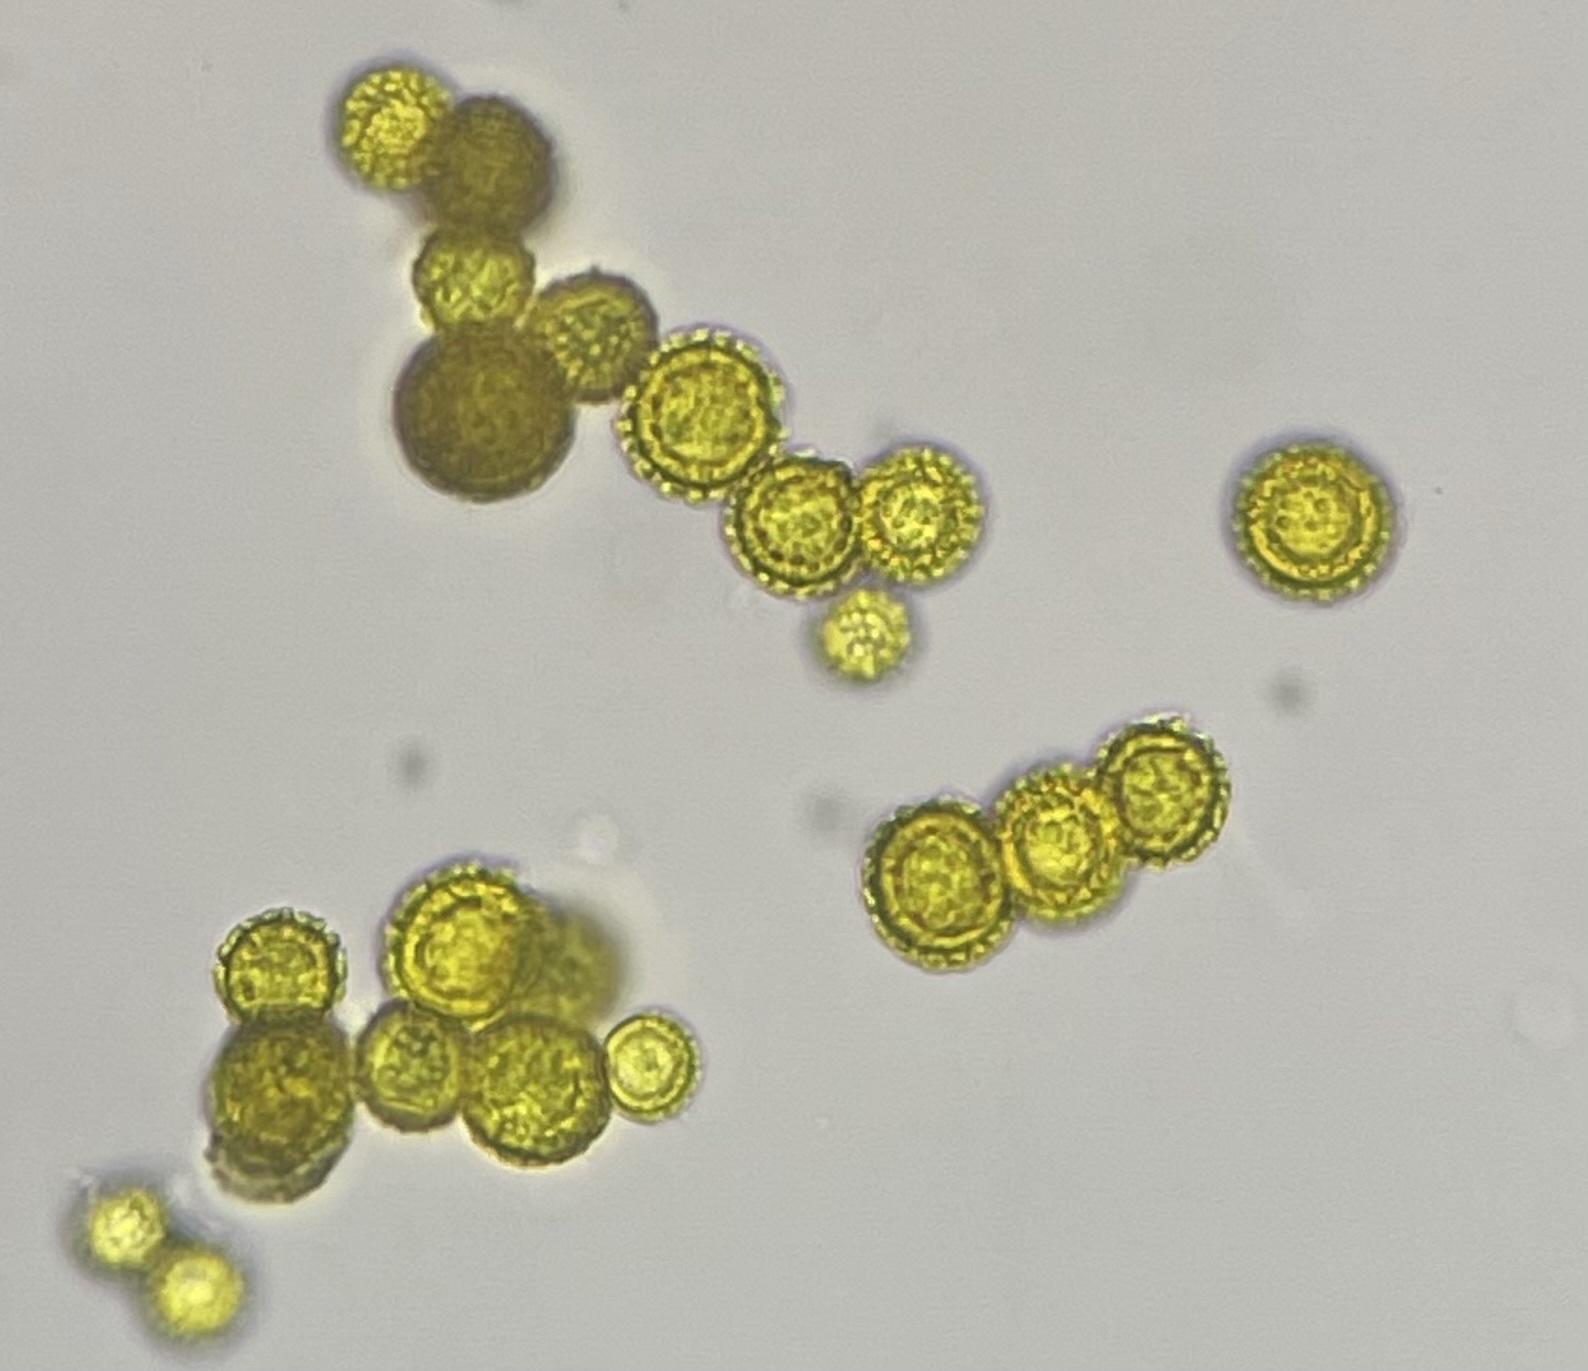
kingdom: Fungi
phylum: Ascomycota
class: Sordariomycetes
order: Hypocreales
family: Hypocreaceae
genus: Hypomyces
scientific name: Hypomyces chrysospermus
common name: Bolete mould
